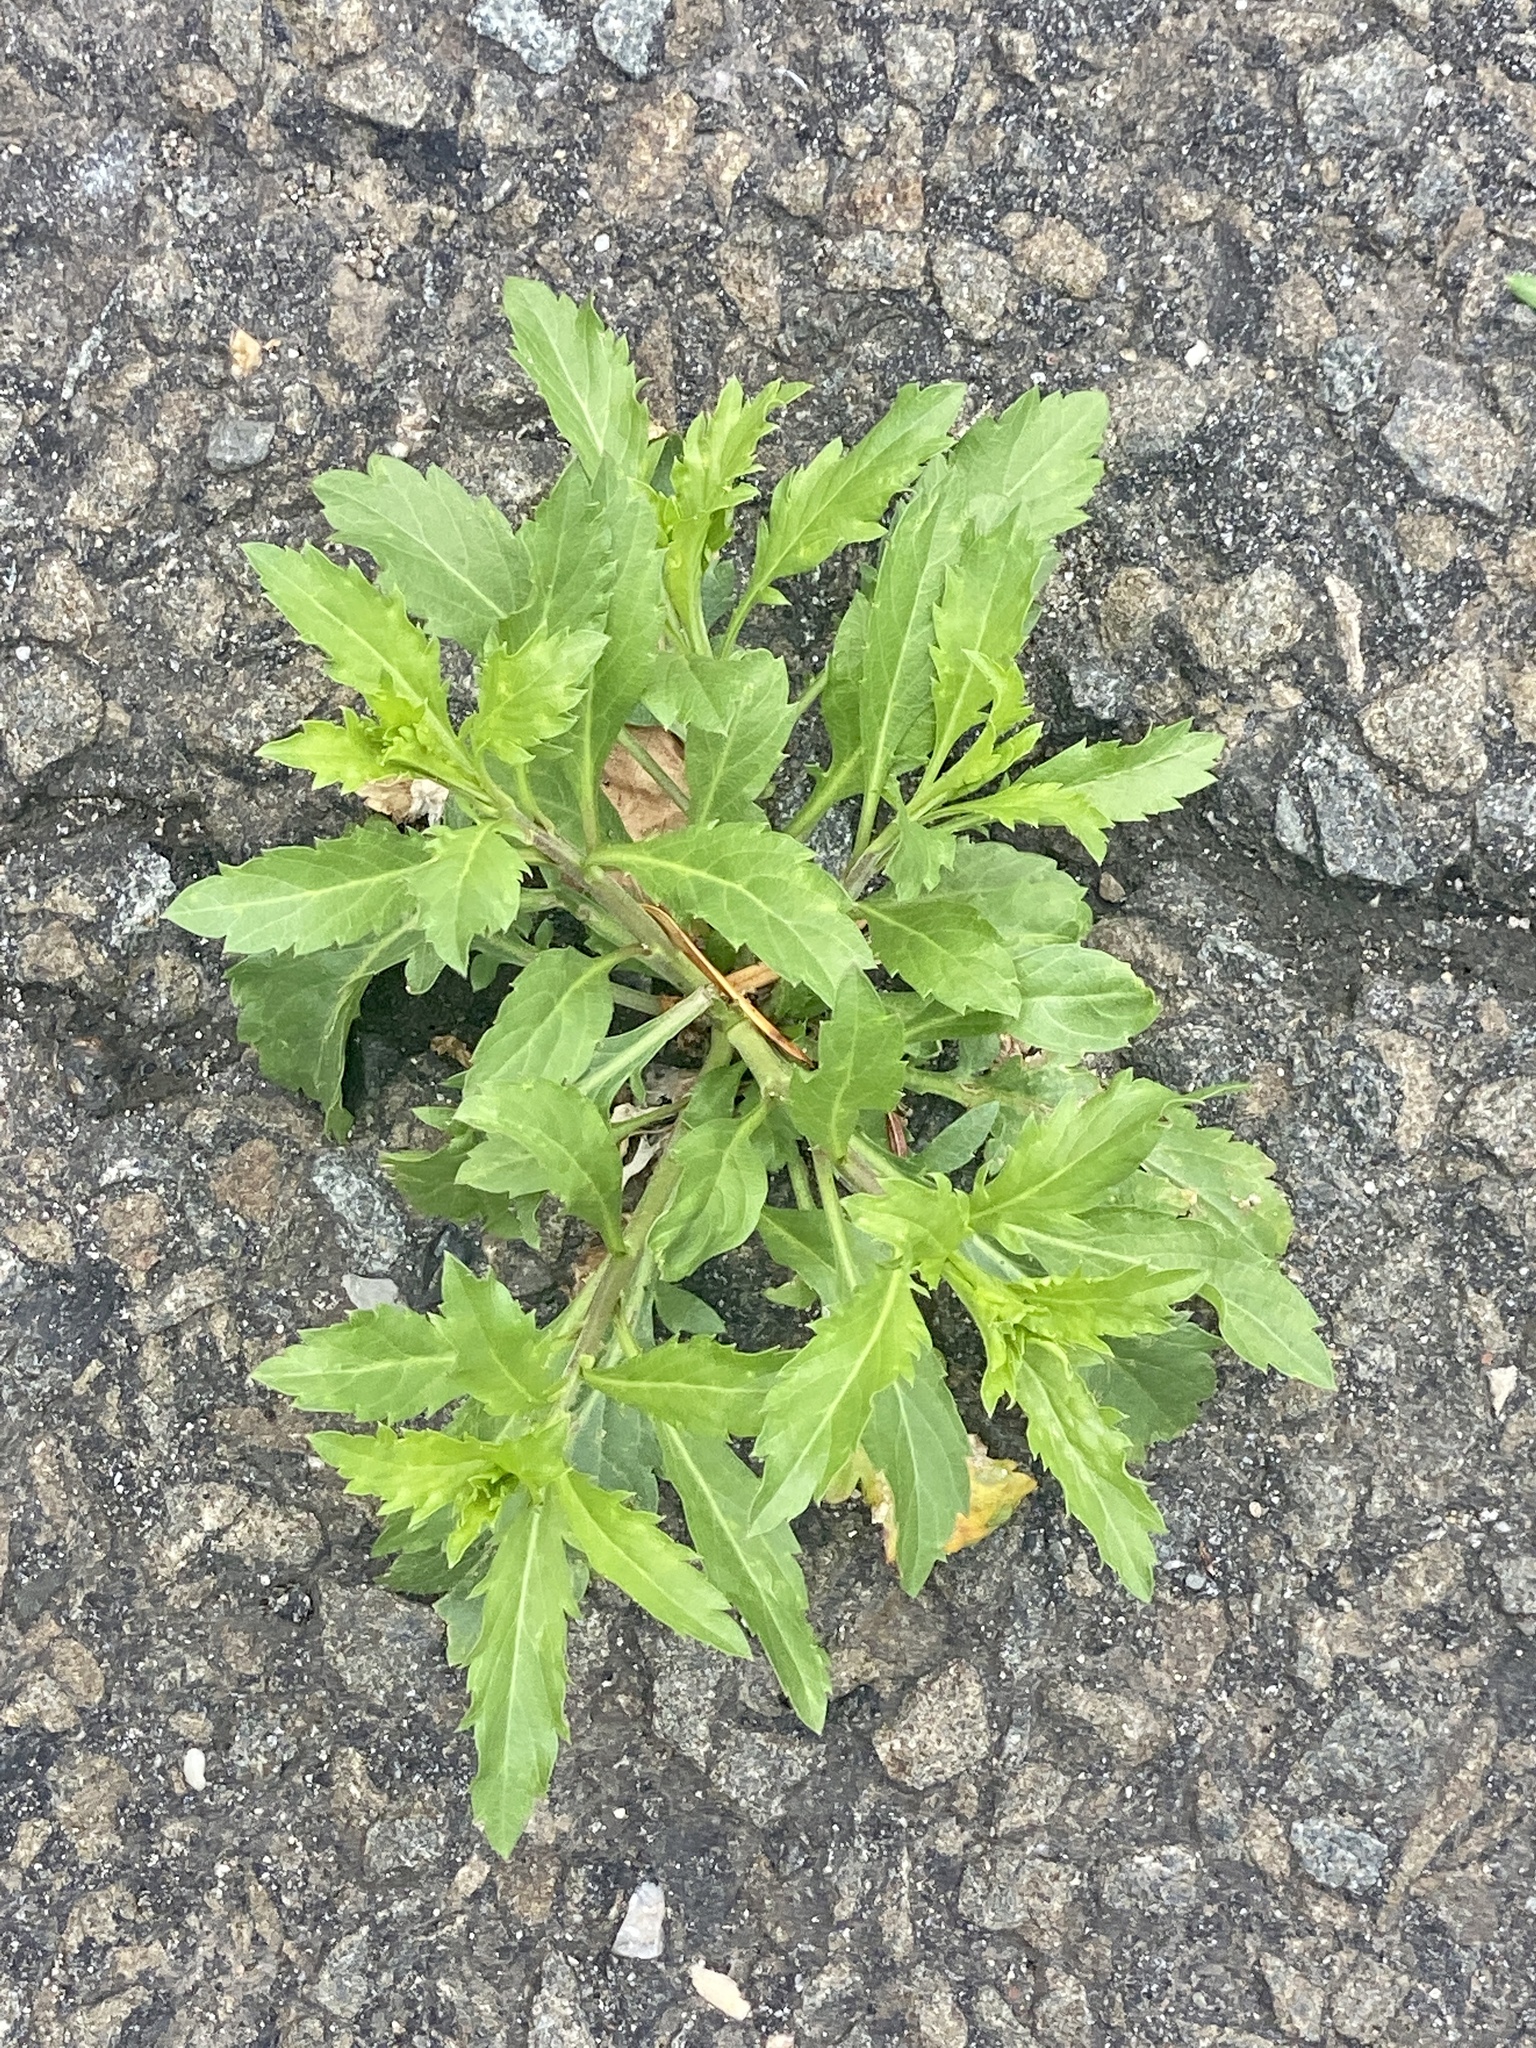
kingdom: Plantae
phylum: Tracheophyta
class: Magnoliopsida
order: Brassicales
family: Brassicaceae
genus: Lepidium
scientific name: Lepidium virginicum
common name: Least pepperwort
